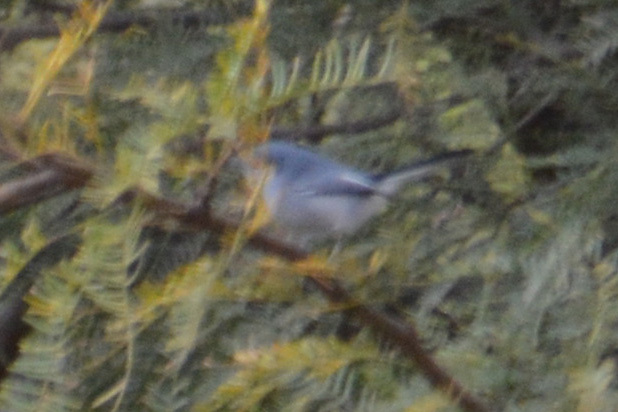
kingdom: Animalia
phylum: Chordata
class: Aves
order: Passeriformes
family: Polioptilidae
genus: Polioptila
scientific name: Polioptila dumicola
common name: Masked gnatcatcher
